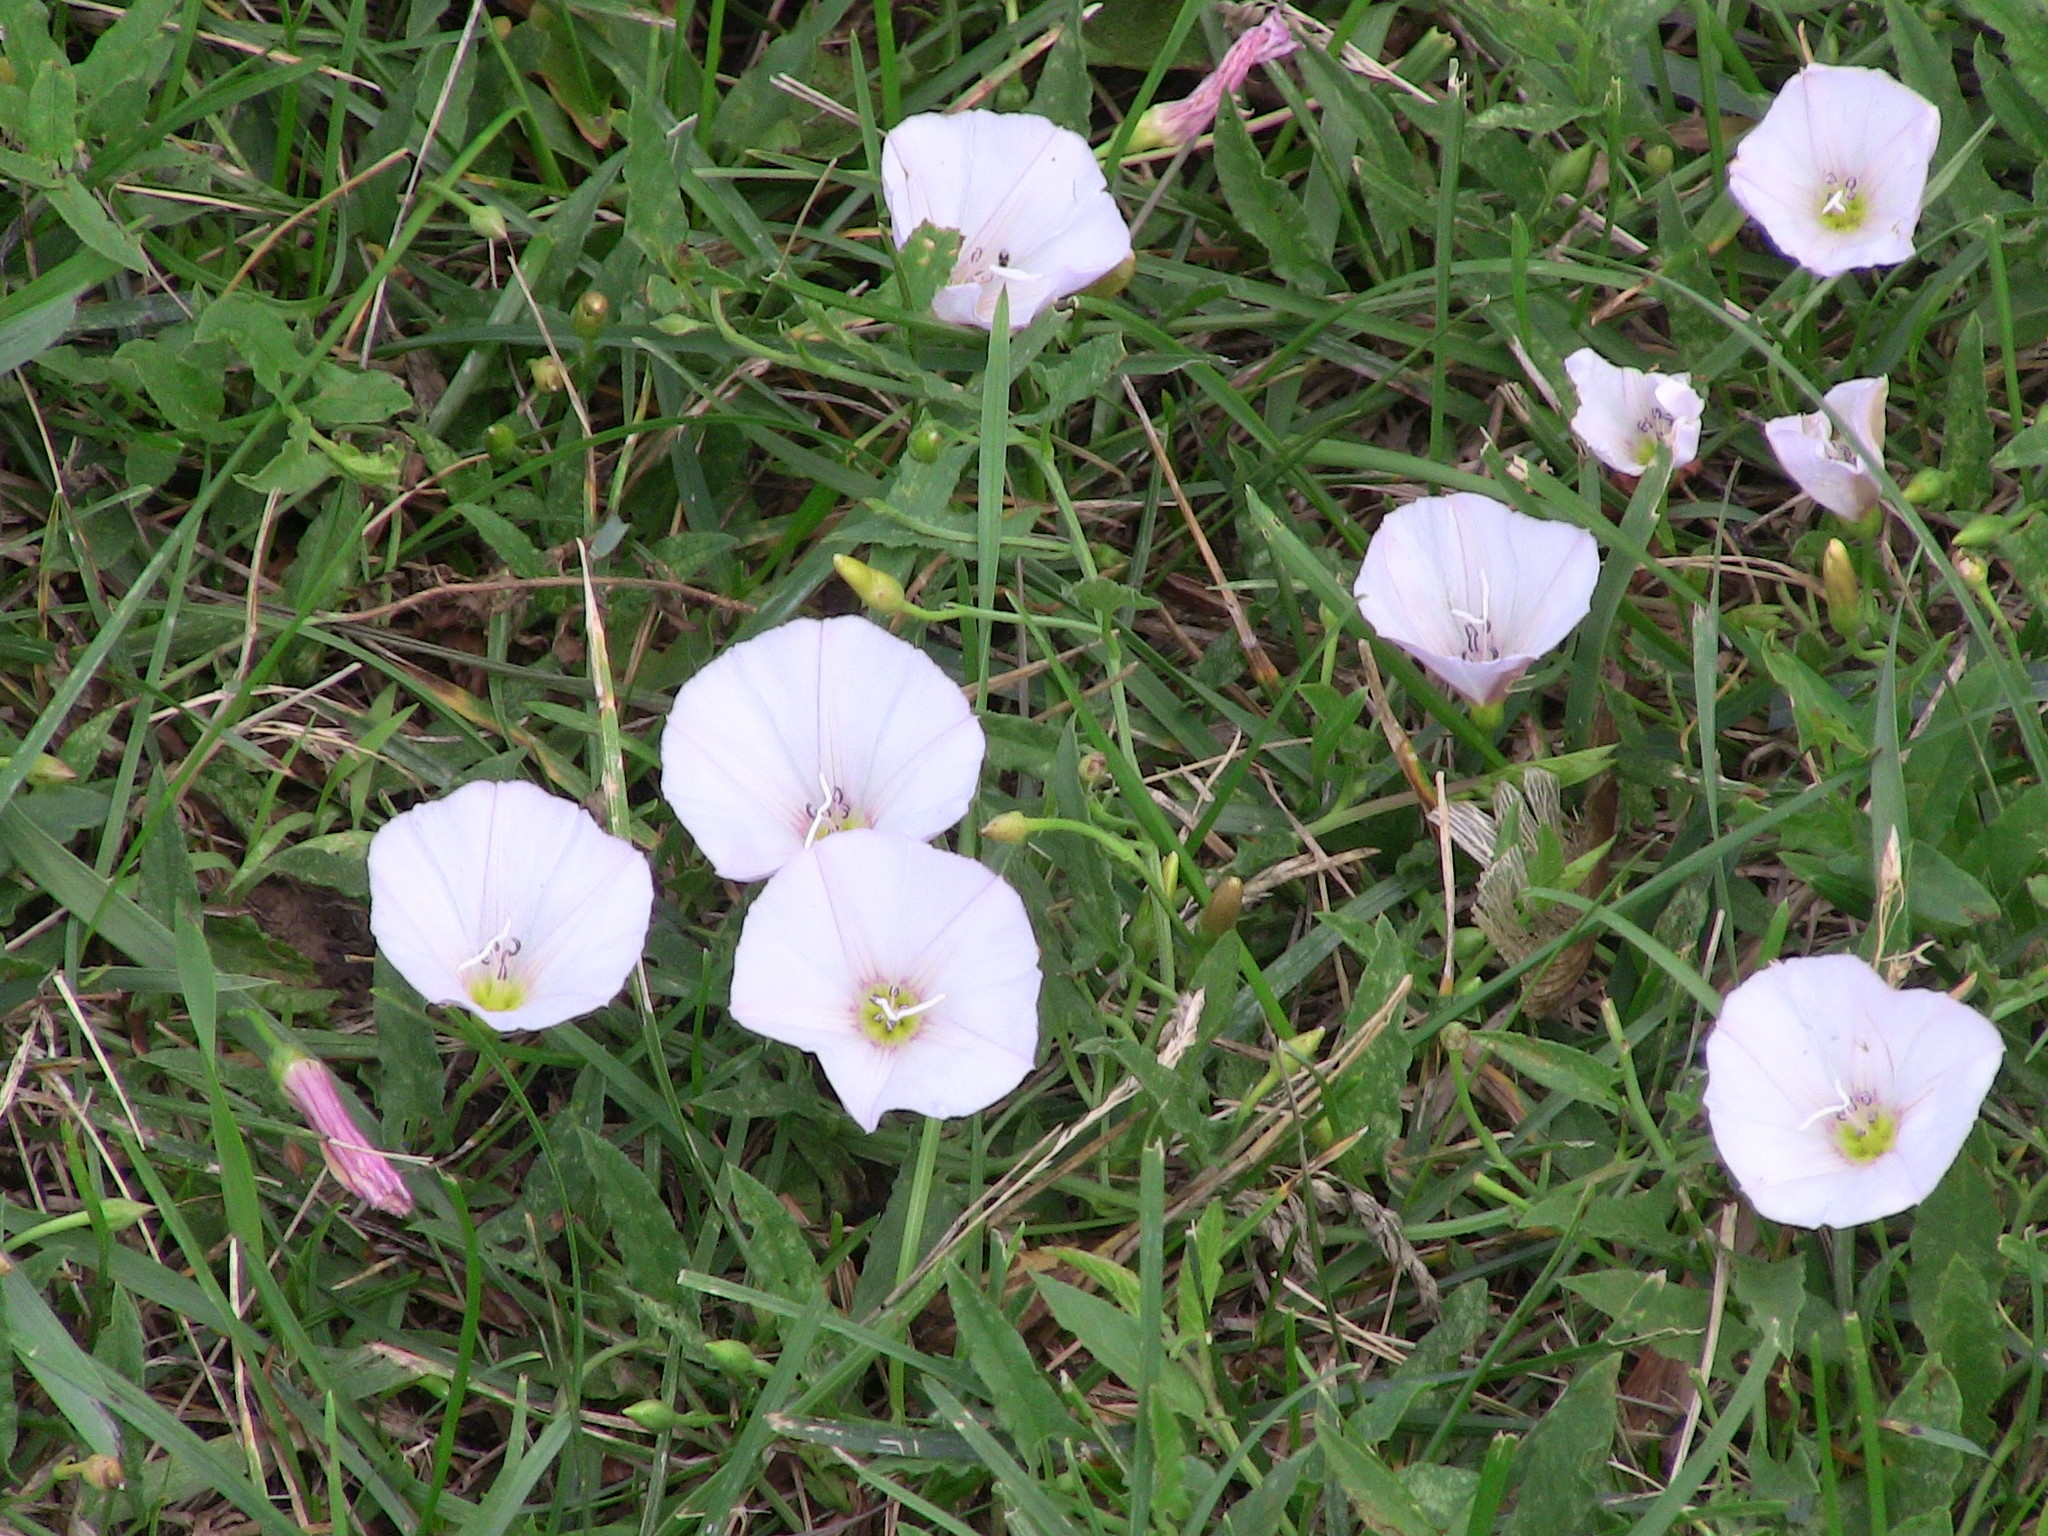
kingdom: Plantae
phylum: Tracheophyta
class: Magnoliopsida
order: Solanales
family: Convolvulaceae
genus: Convolvulus
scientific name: Convolvulus arvensis
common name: Field bindweed
